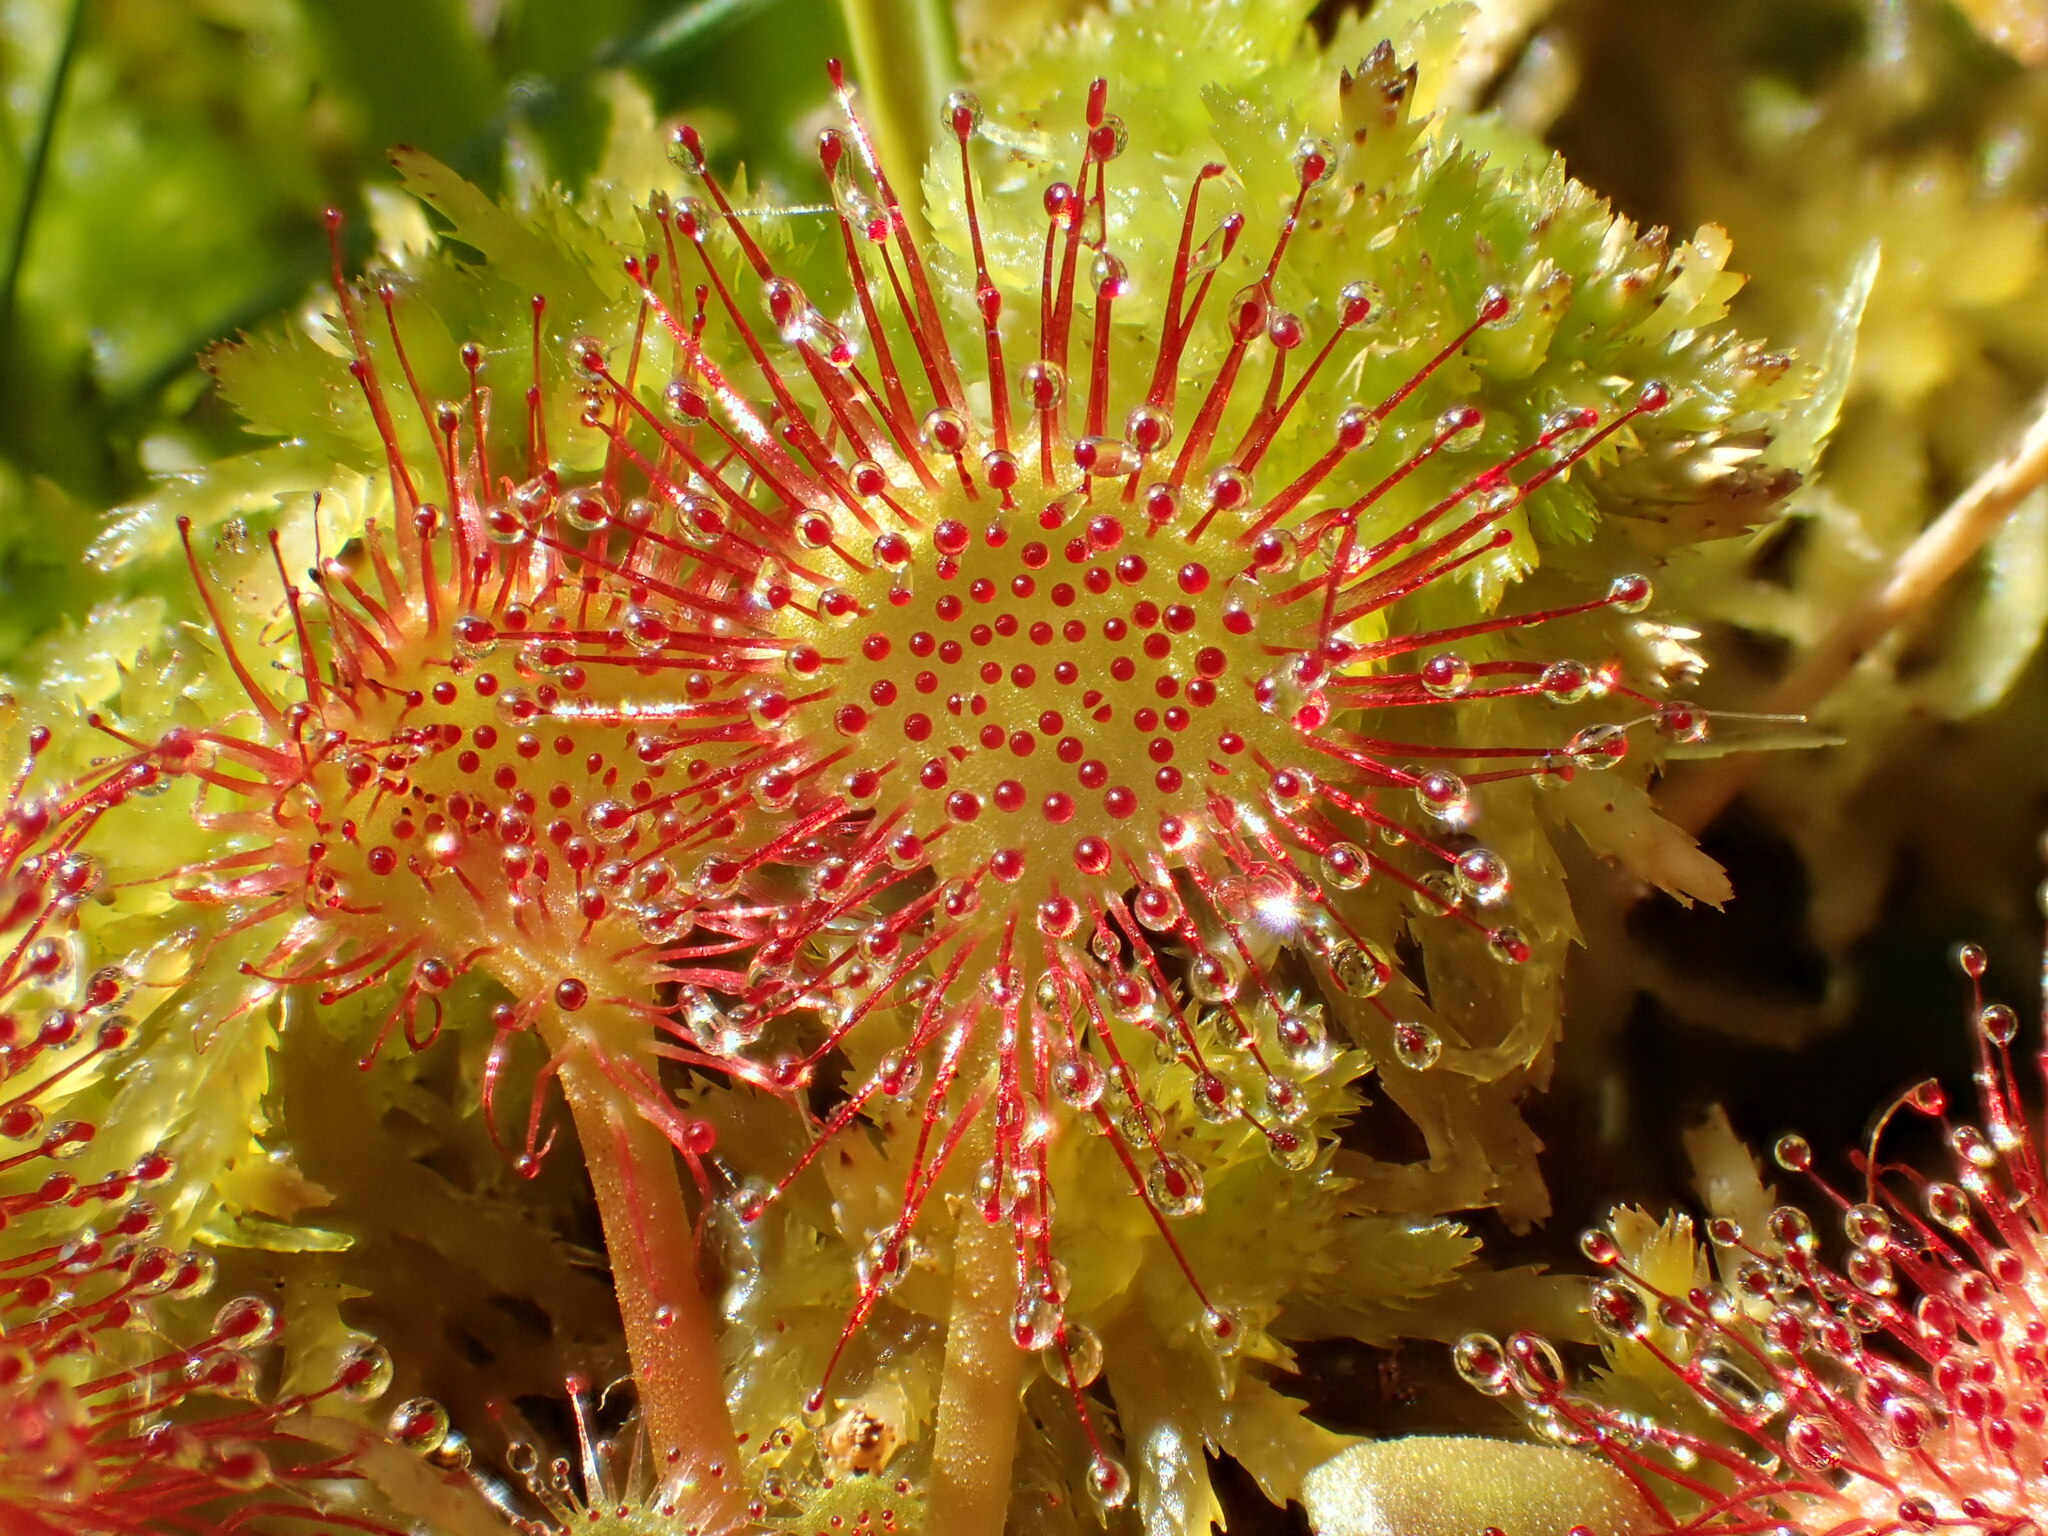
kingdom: Plantae
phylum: Tracheophyta
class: Magnoliopsida
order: Caryophyllales
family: Droseraceae
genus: Drosera
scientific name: Drosera rotundifolia
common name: Round-leaved sundew
